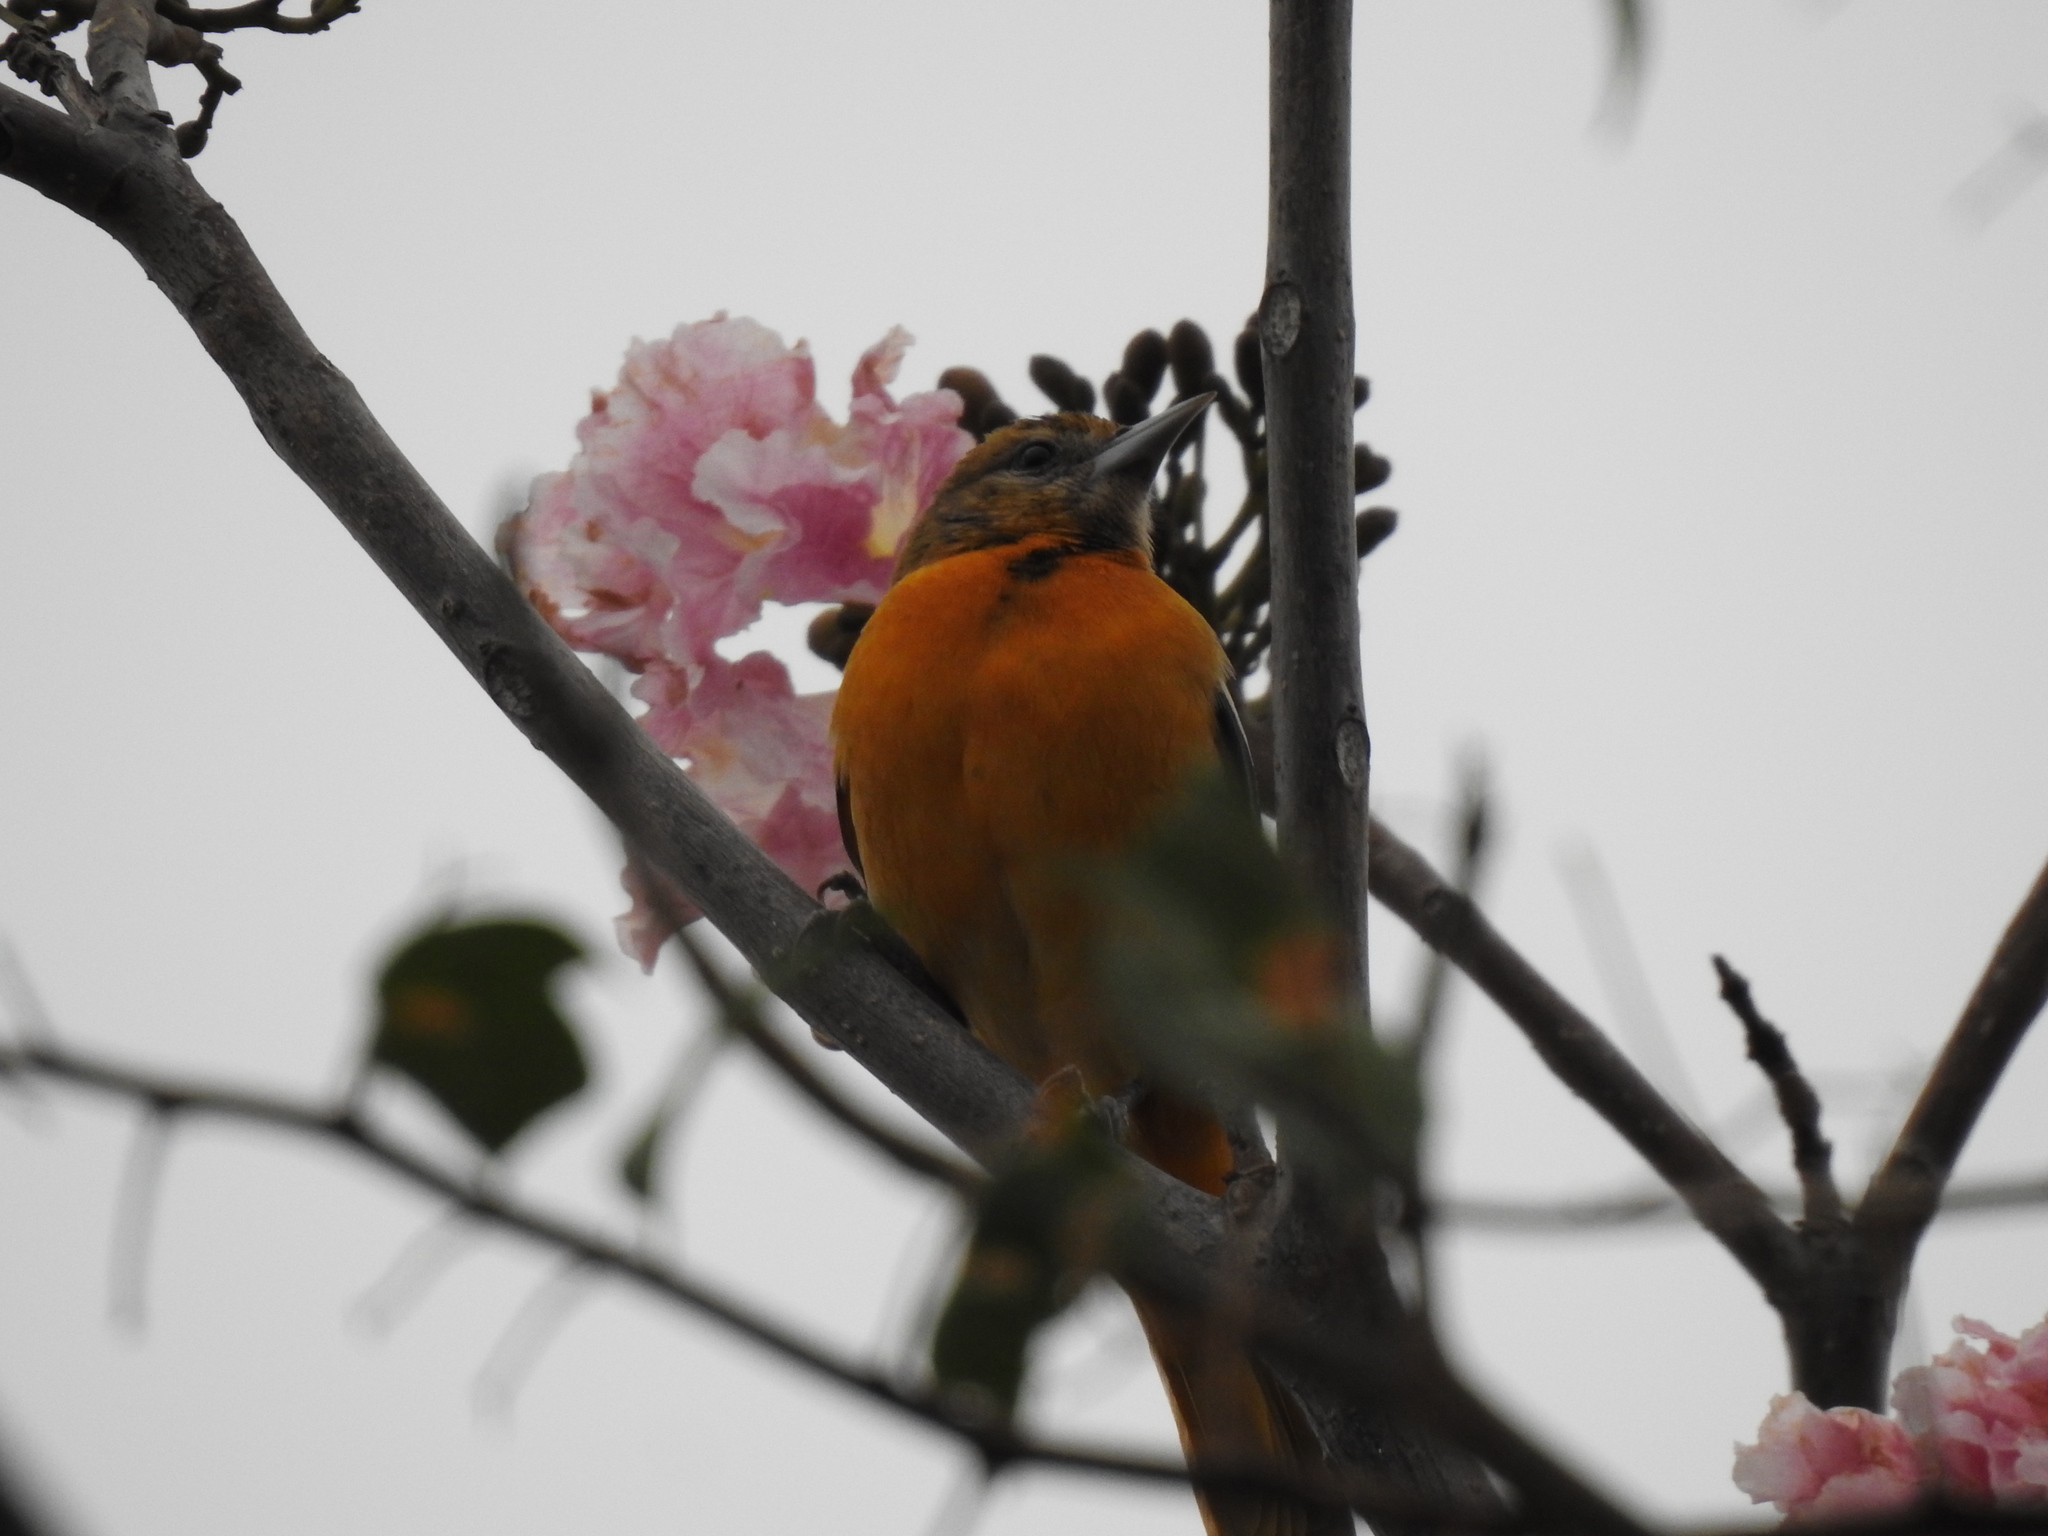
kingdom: Animalia
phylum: Chordata
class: Aves
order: Passeriformes
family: Icteridae
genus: Icterus
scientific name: Icterus galbula
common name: Baltimore oriole
